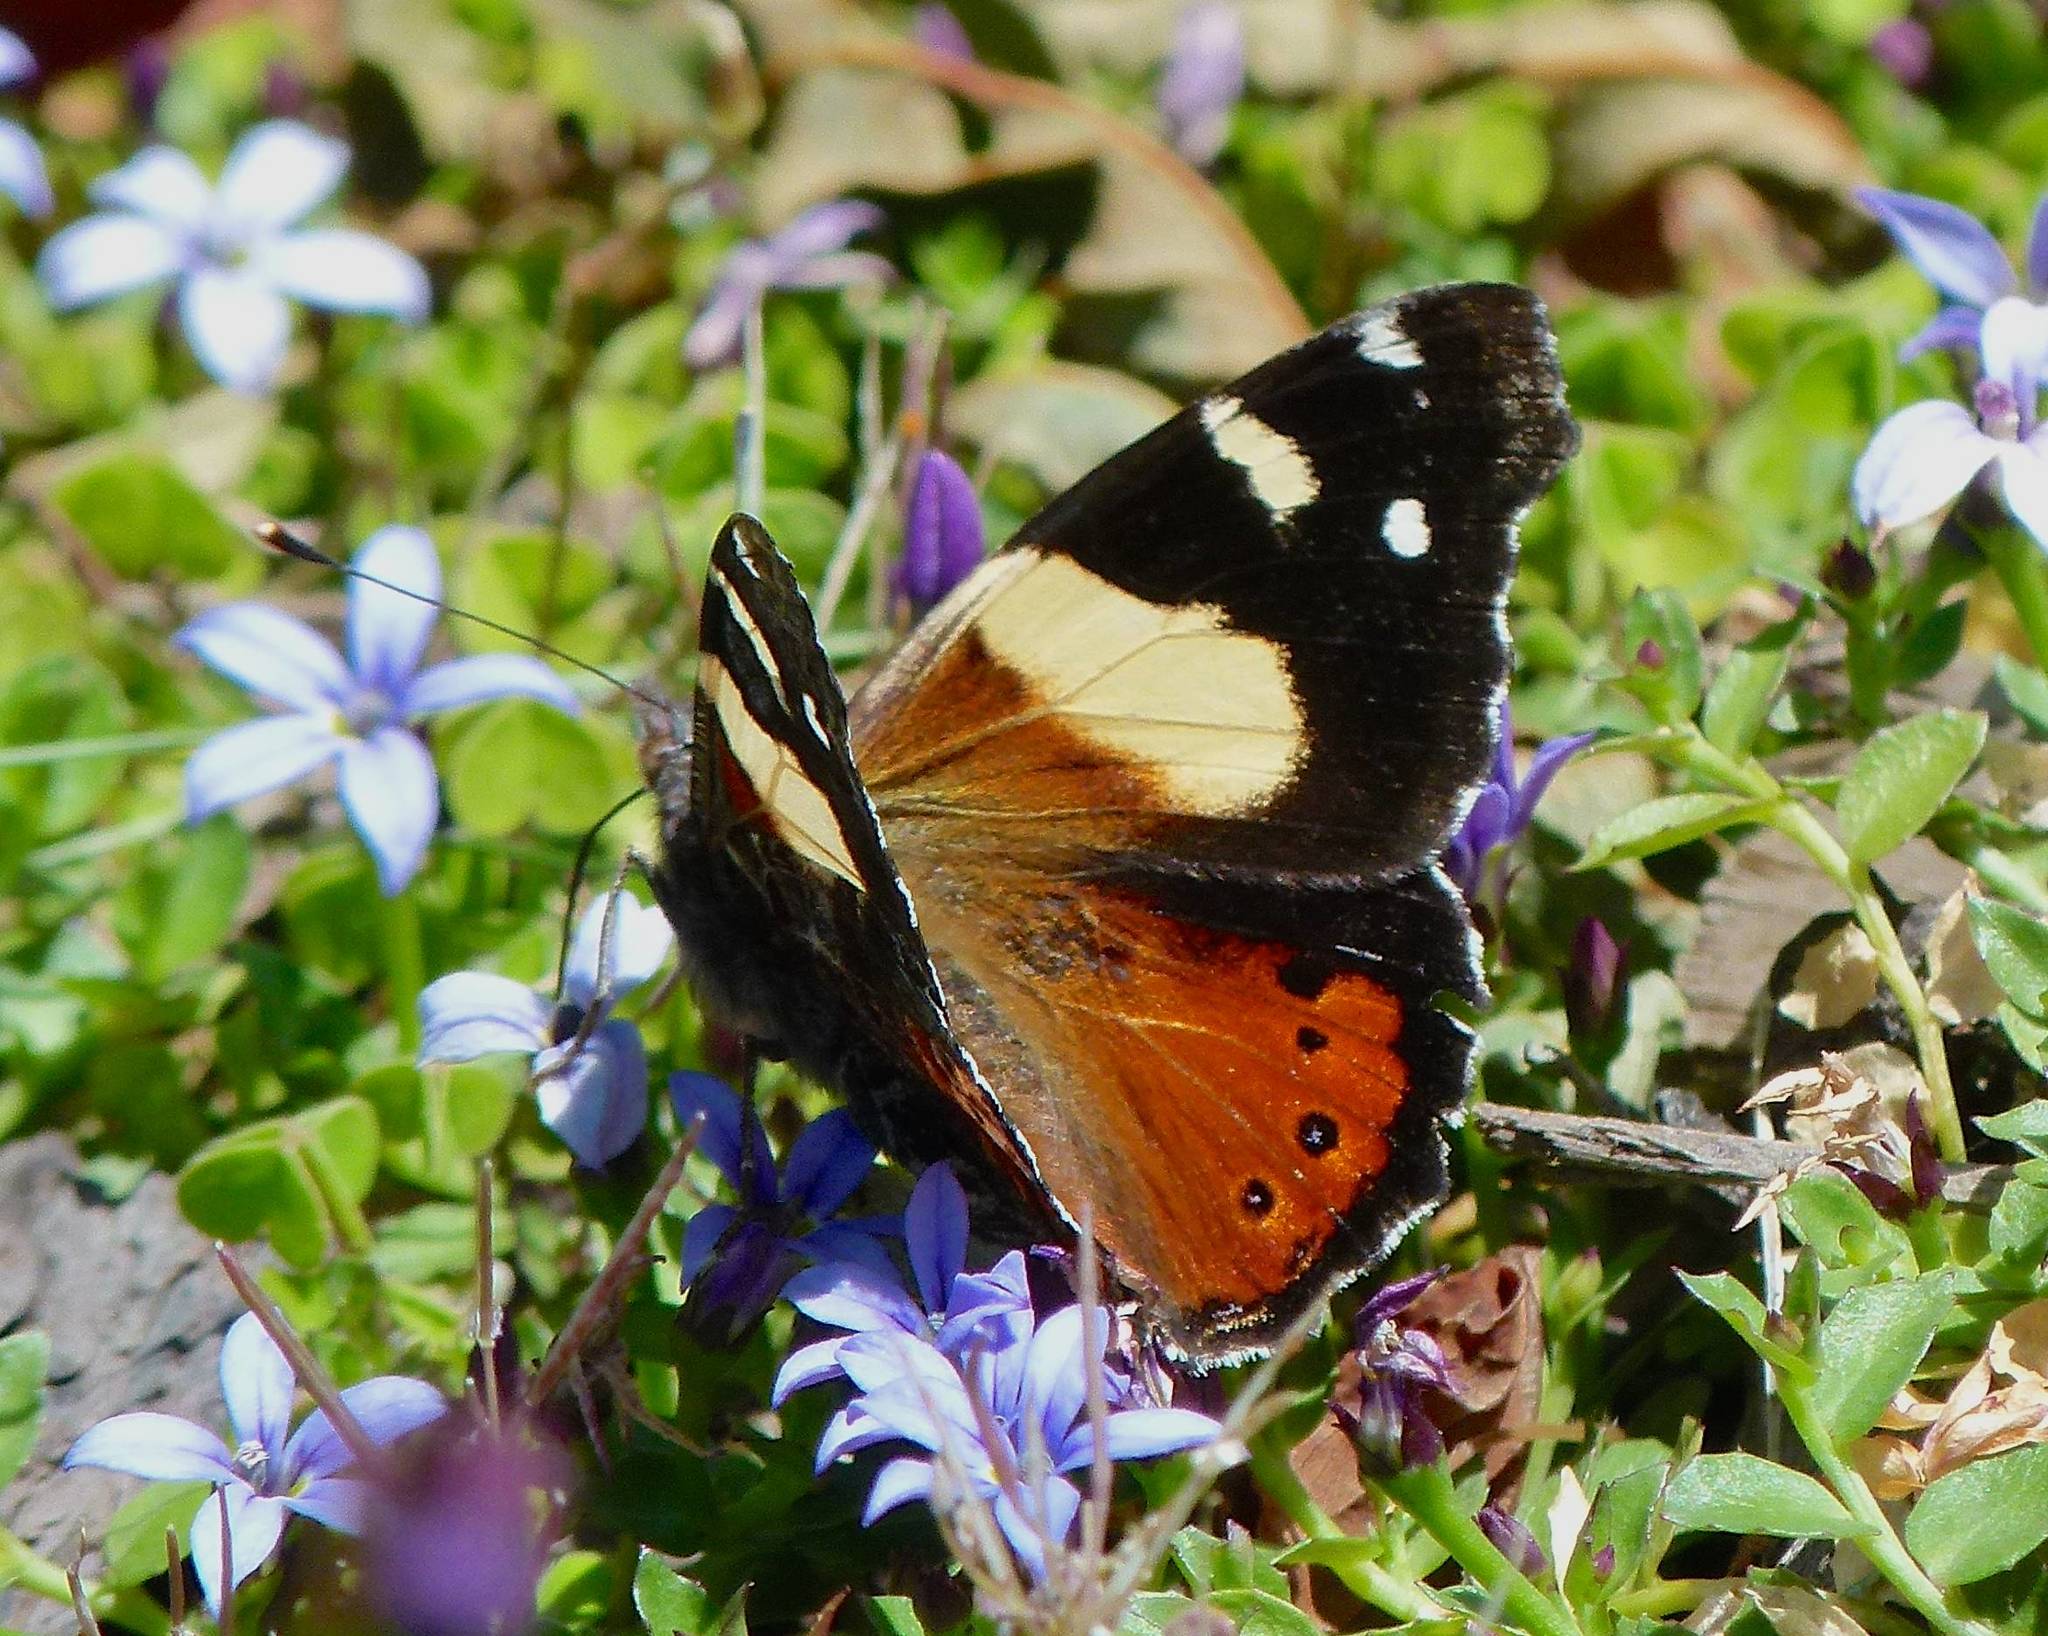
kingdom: Animalia
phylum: Arthropoda
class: Insecta
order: Lepidoptera
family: Nymphalidae
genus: Vanessa
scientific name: Vanessa itea
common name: Yellow admiral
